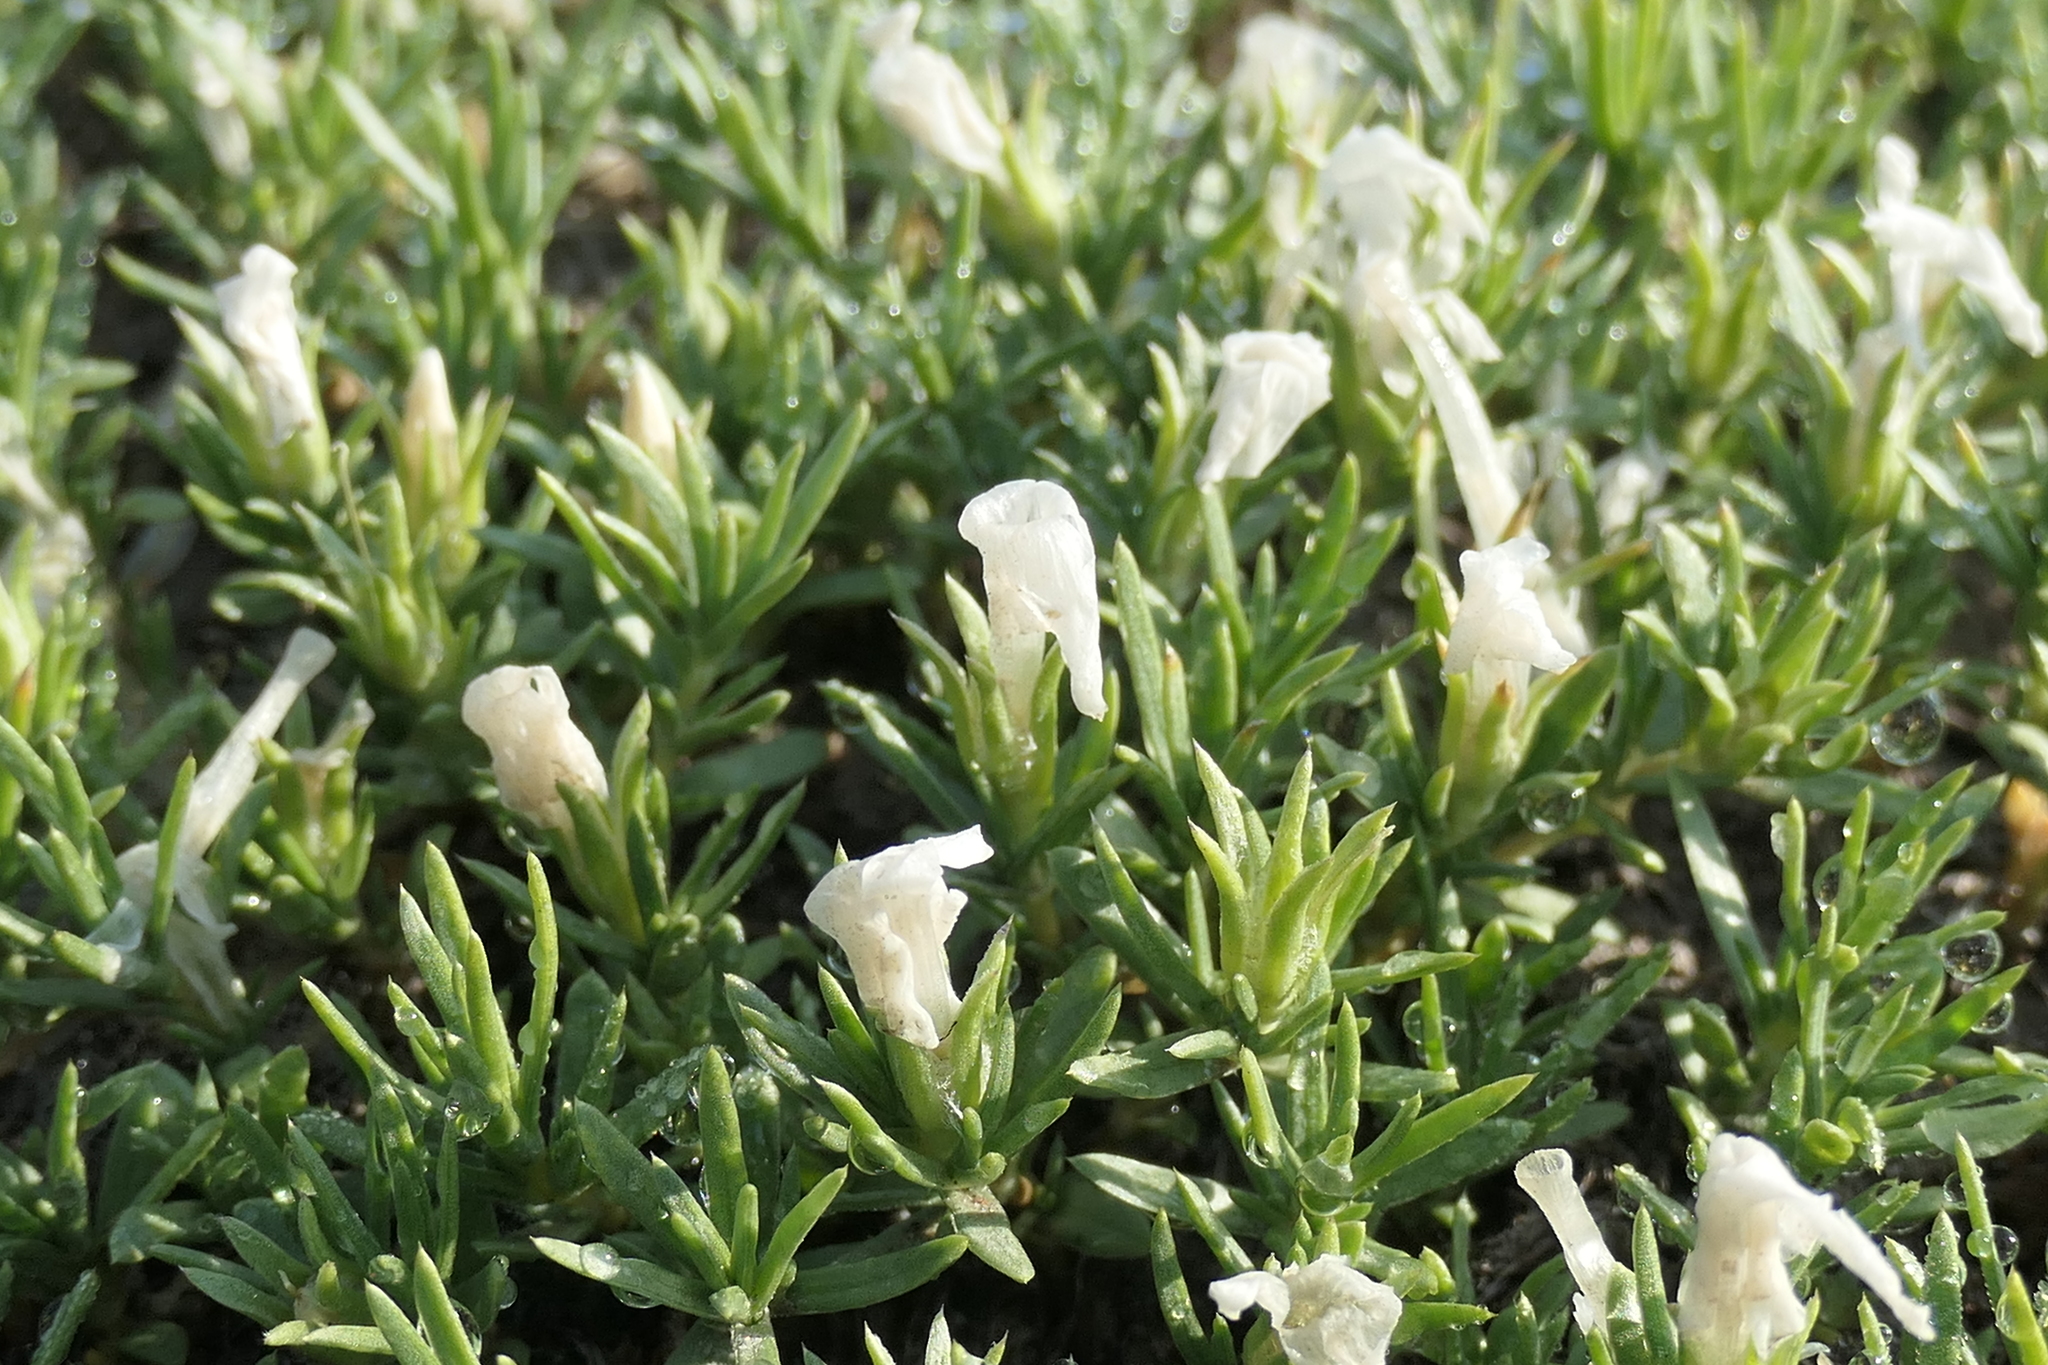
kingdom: Plantae
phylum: Tracheophyta
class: Magnoliopsida
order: Ericales
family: Polemoniaceae
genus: Phlox
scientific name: Phlox diffusa
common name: Mat phlox
